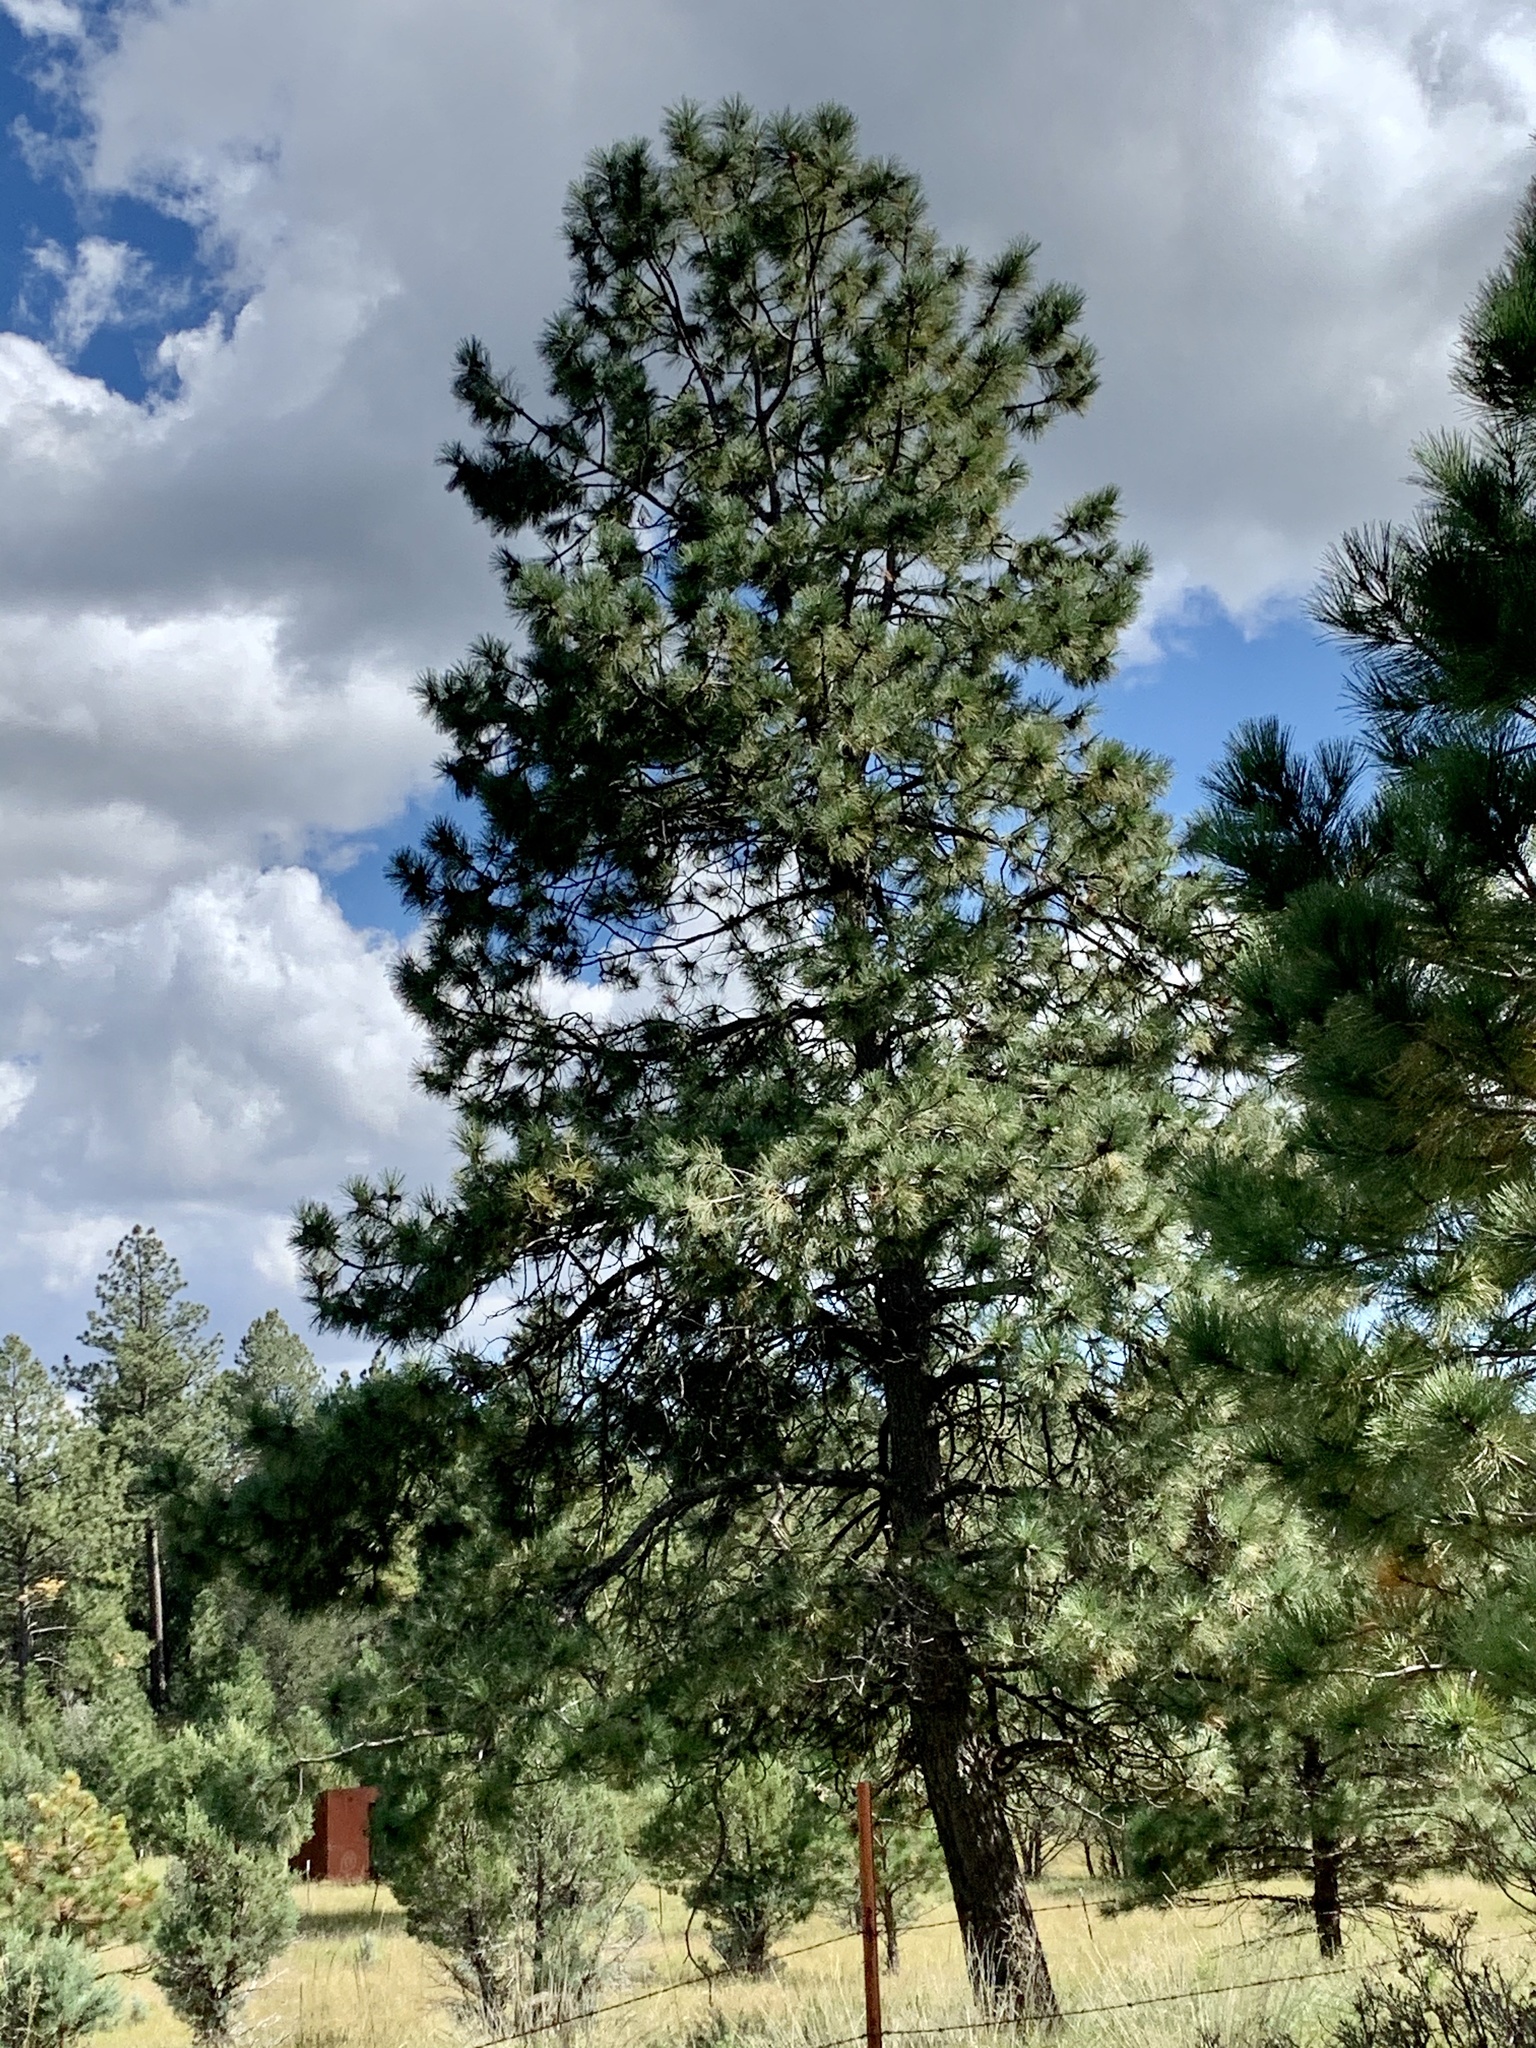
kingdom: Plantae
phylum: Tracheophyta
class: Pinopsida
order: Pinales
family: Pinaceae
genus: Pinus
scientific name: Pinus ponderosa
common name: Western yellow-pine
